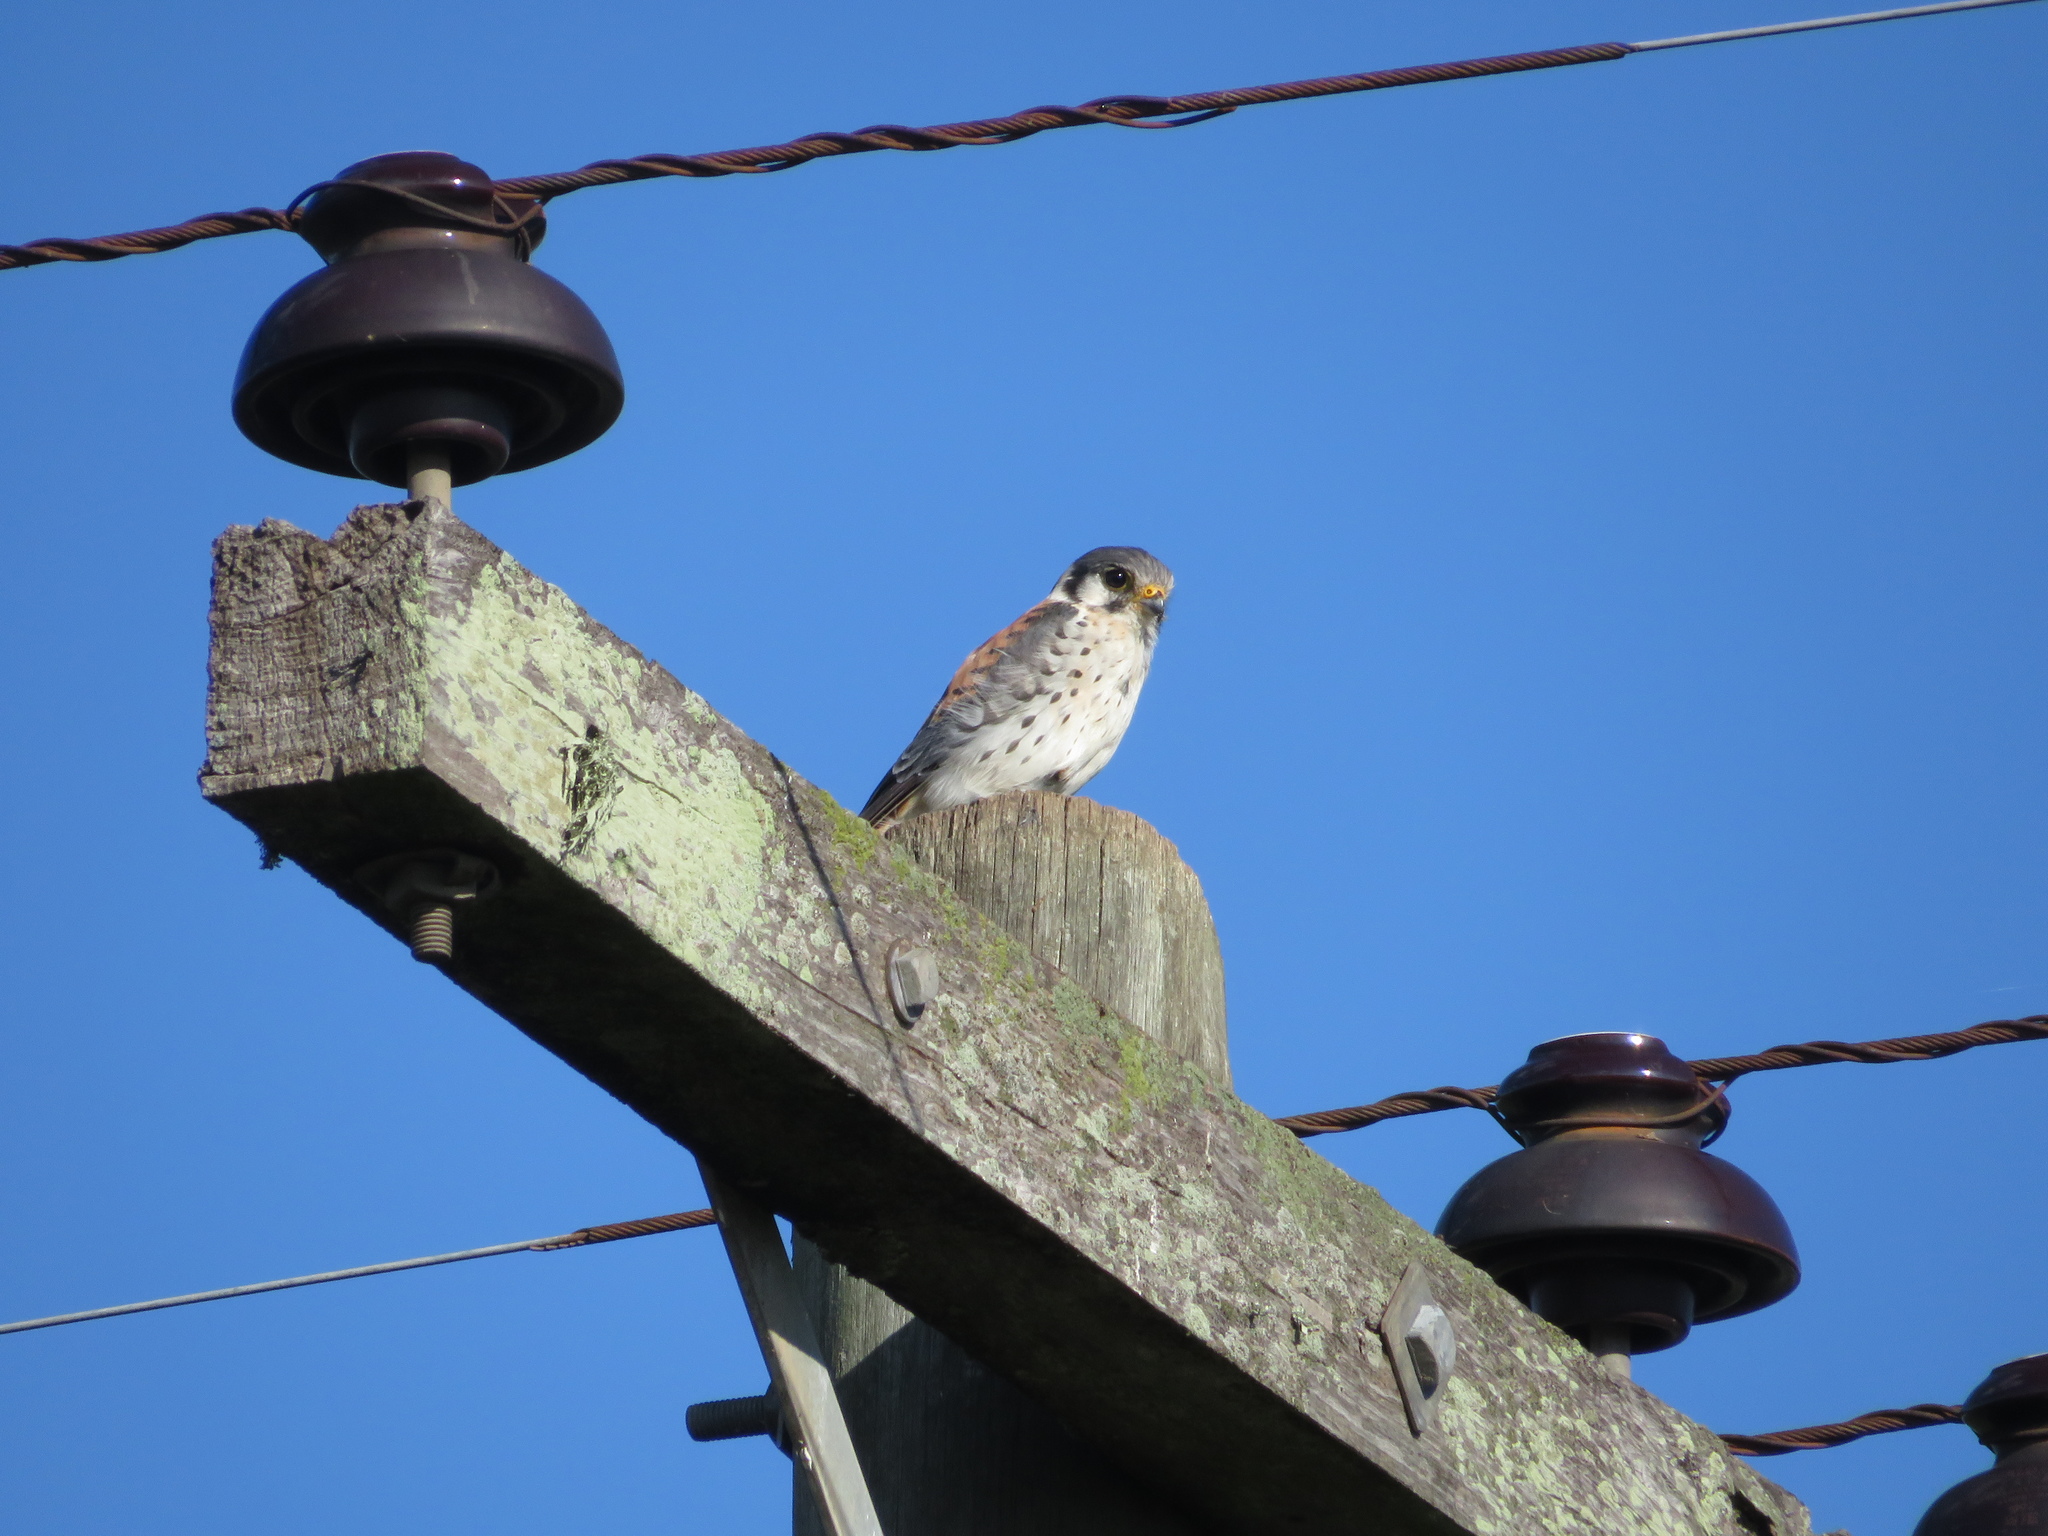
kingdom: Animalia
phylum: Chordata
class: Aves
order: Falconiformes
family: Falconidae
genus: Falco
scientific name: Falco sparverius
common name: American kestrel
